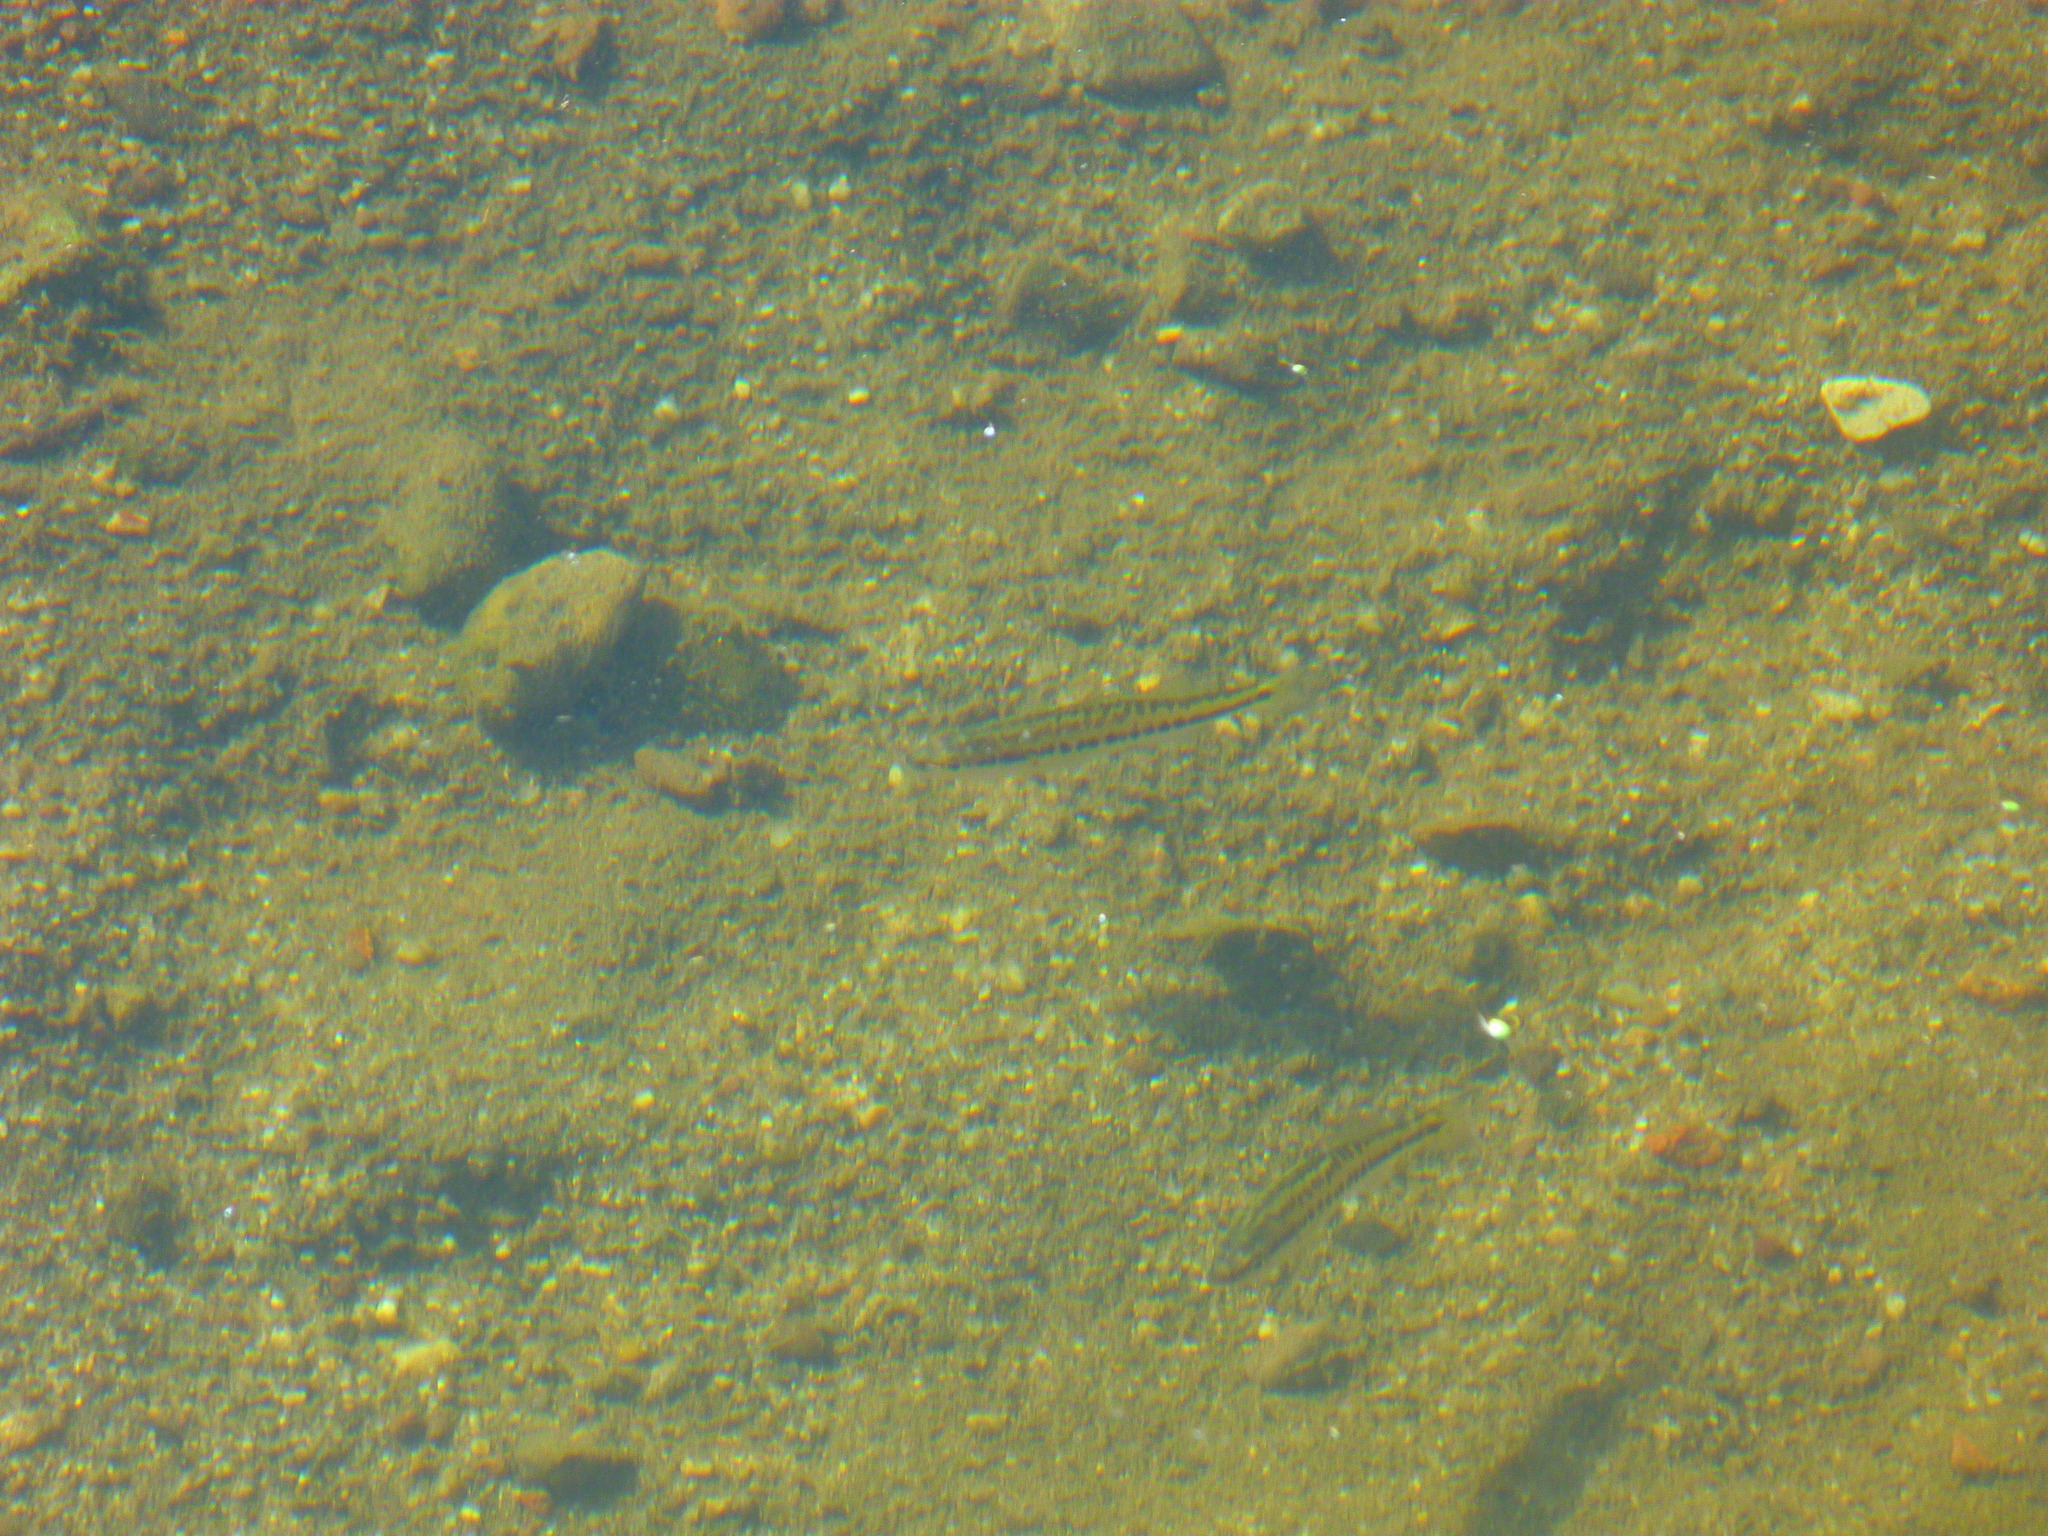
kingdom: Animalia
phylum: Chordata
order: Perciformes
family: Centrarchidae
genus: Micropterus
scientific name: Micropterus
